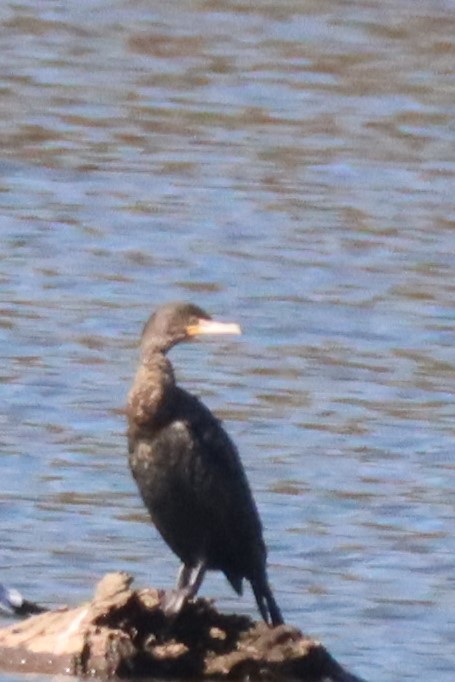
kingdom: Animalia
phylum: Chordata
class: Aves
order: Suliformes
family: Phalacrocoracidae
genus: Phalacrocorax
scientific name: Phalacrocorax auritus
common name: Double-crested cormorant
